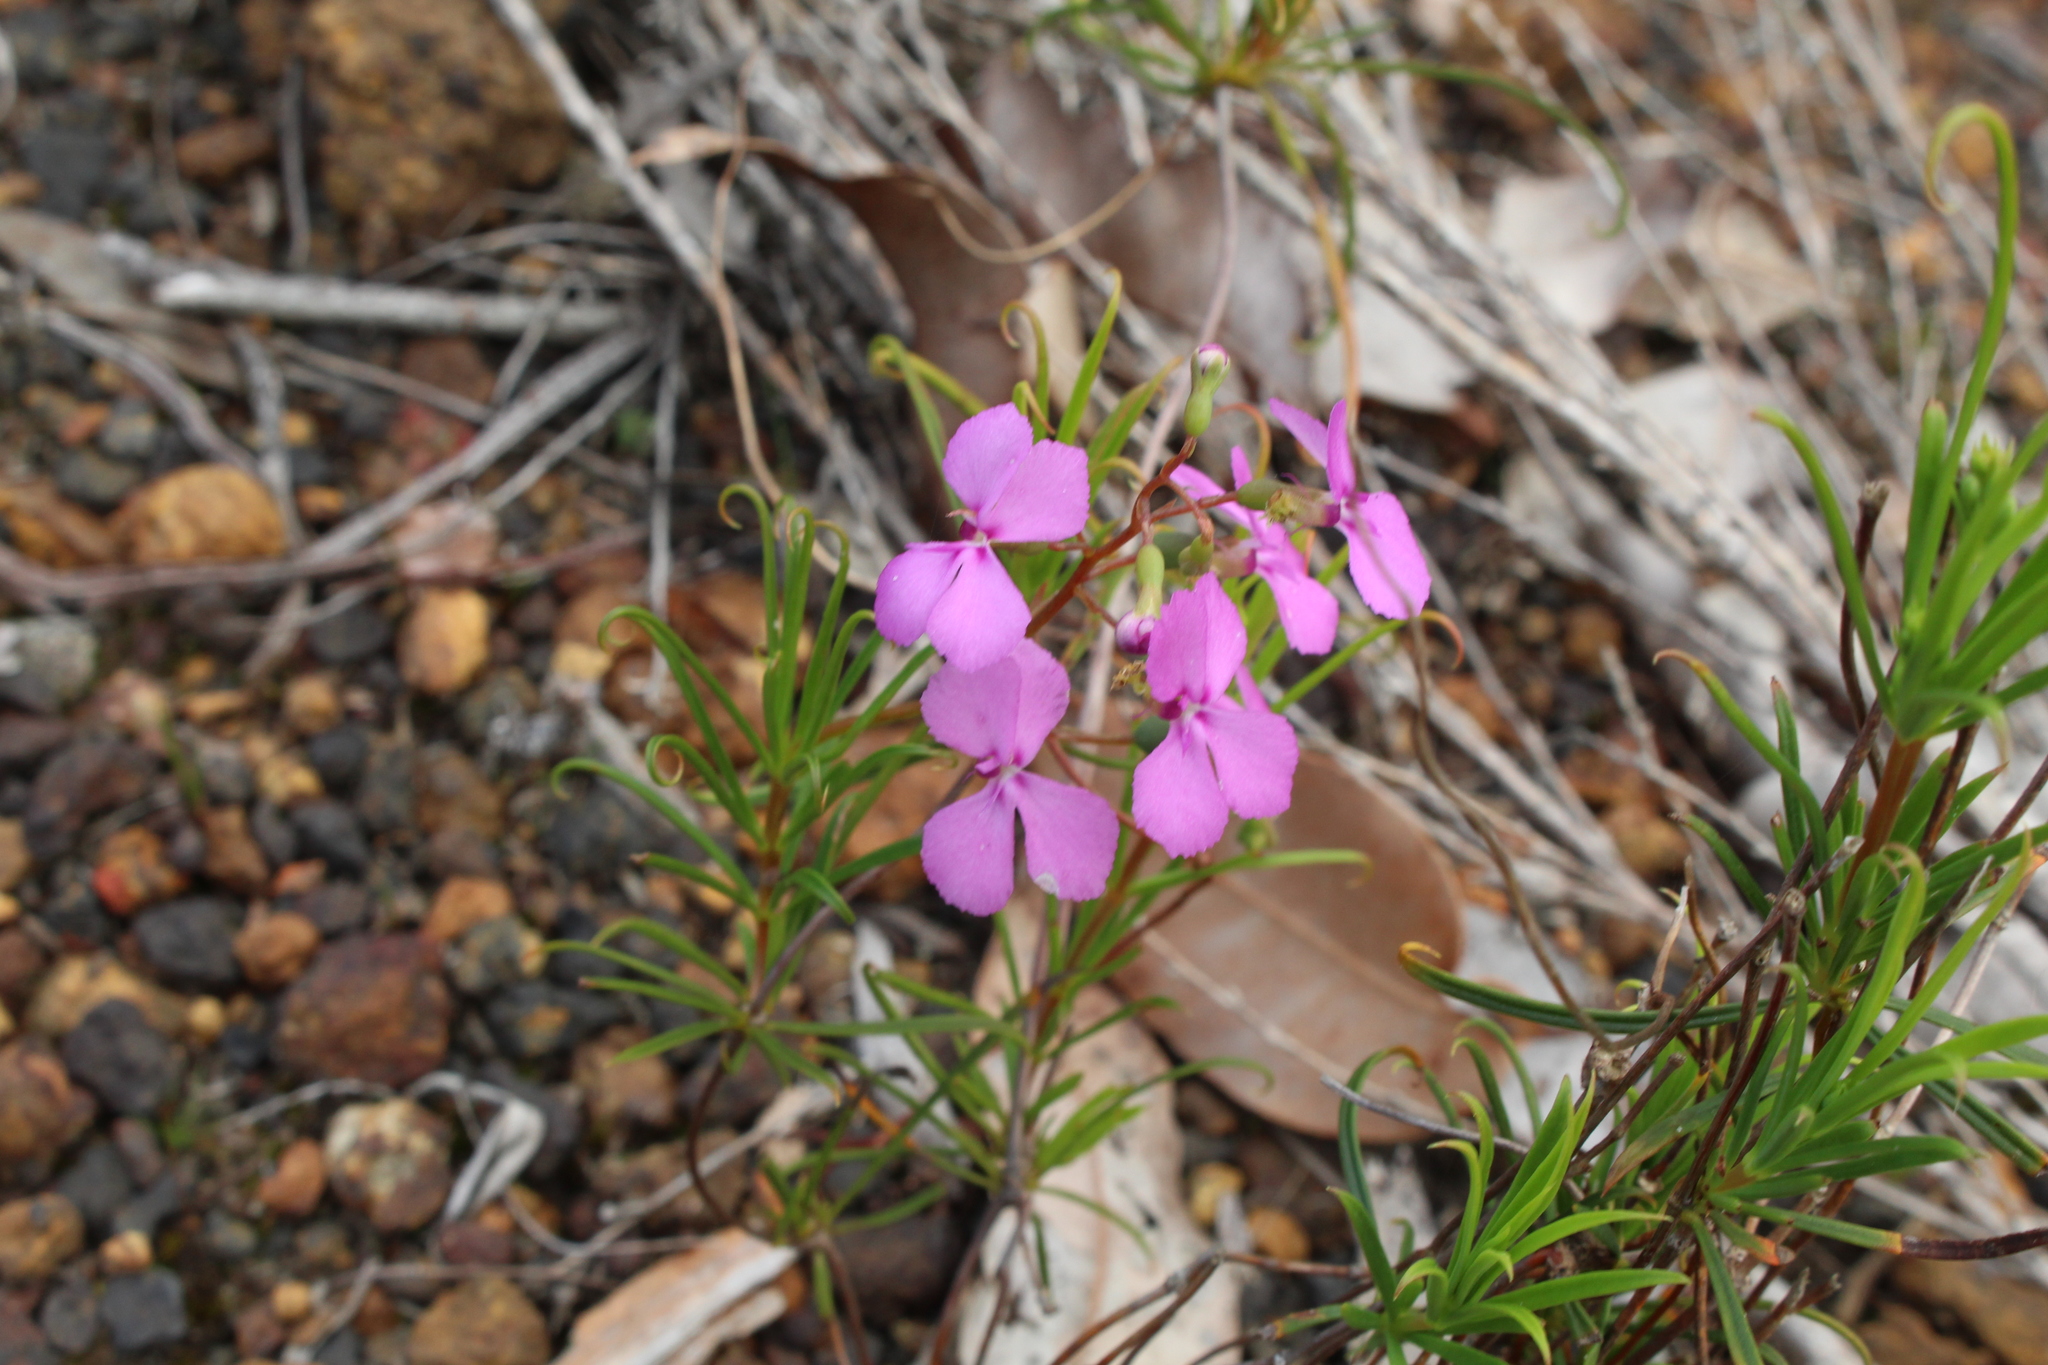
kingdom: Plantae
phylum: Tracheophyta
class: Magnoliopsida
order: Asterales
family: Stylidiaceae
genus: Stylidium
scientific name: Stylidium scandens
